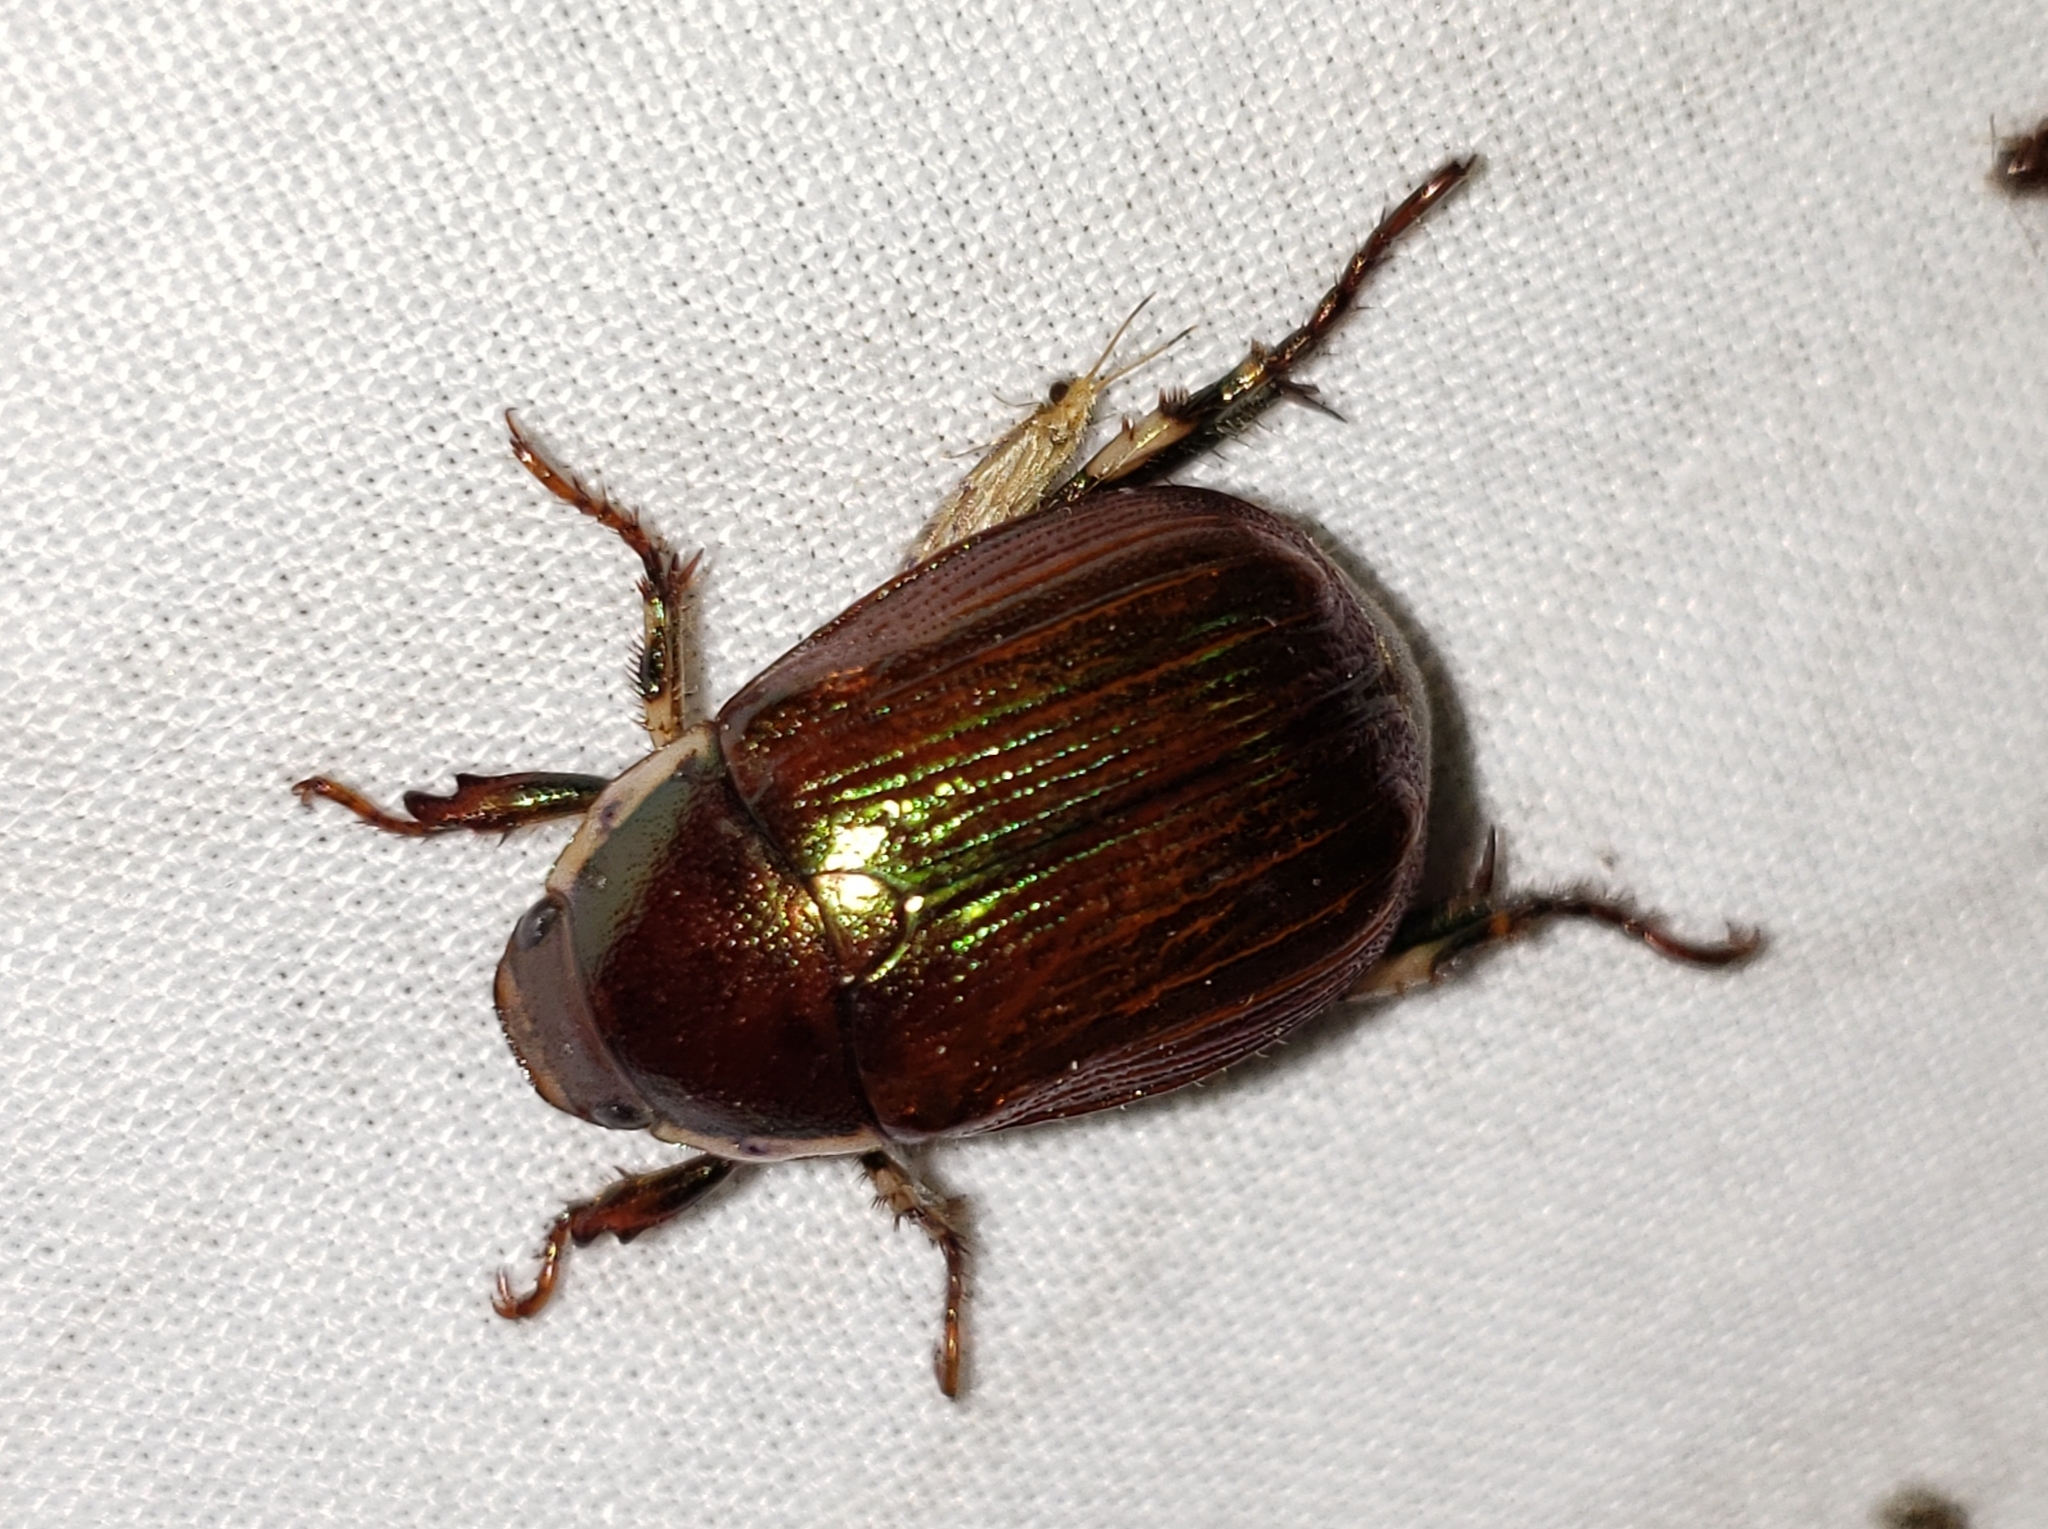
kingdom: Animalia
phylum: Arthropoda
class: Insecta
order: Coleoptera
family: Scarabaeidae
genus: Callistethus
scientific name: Callistethus marginatus
